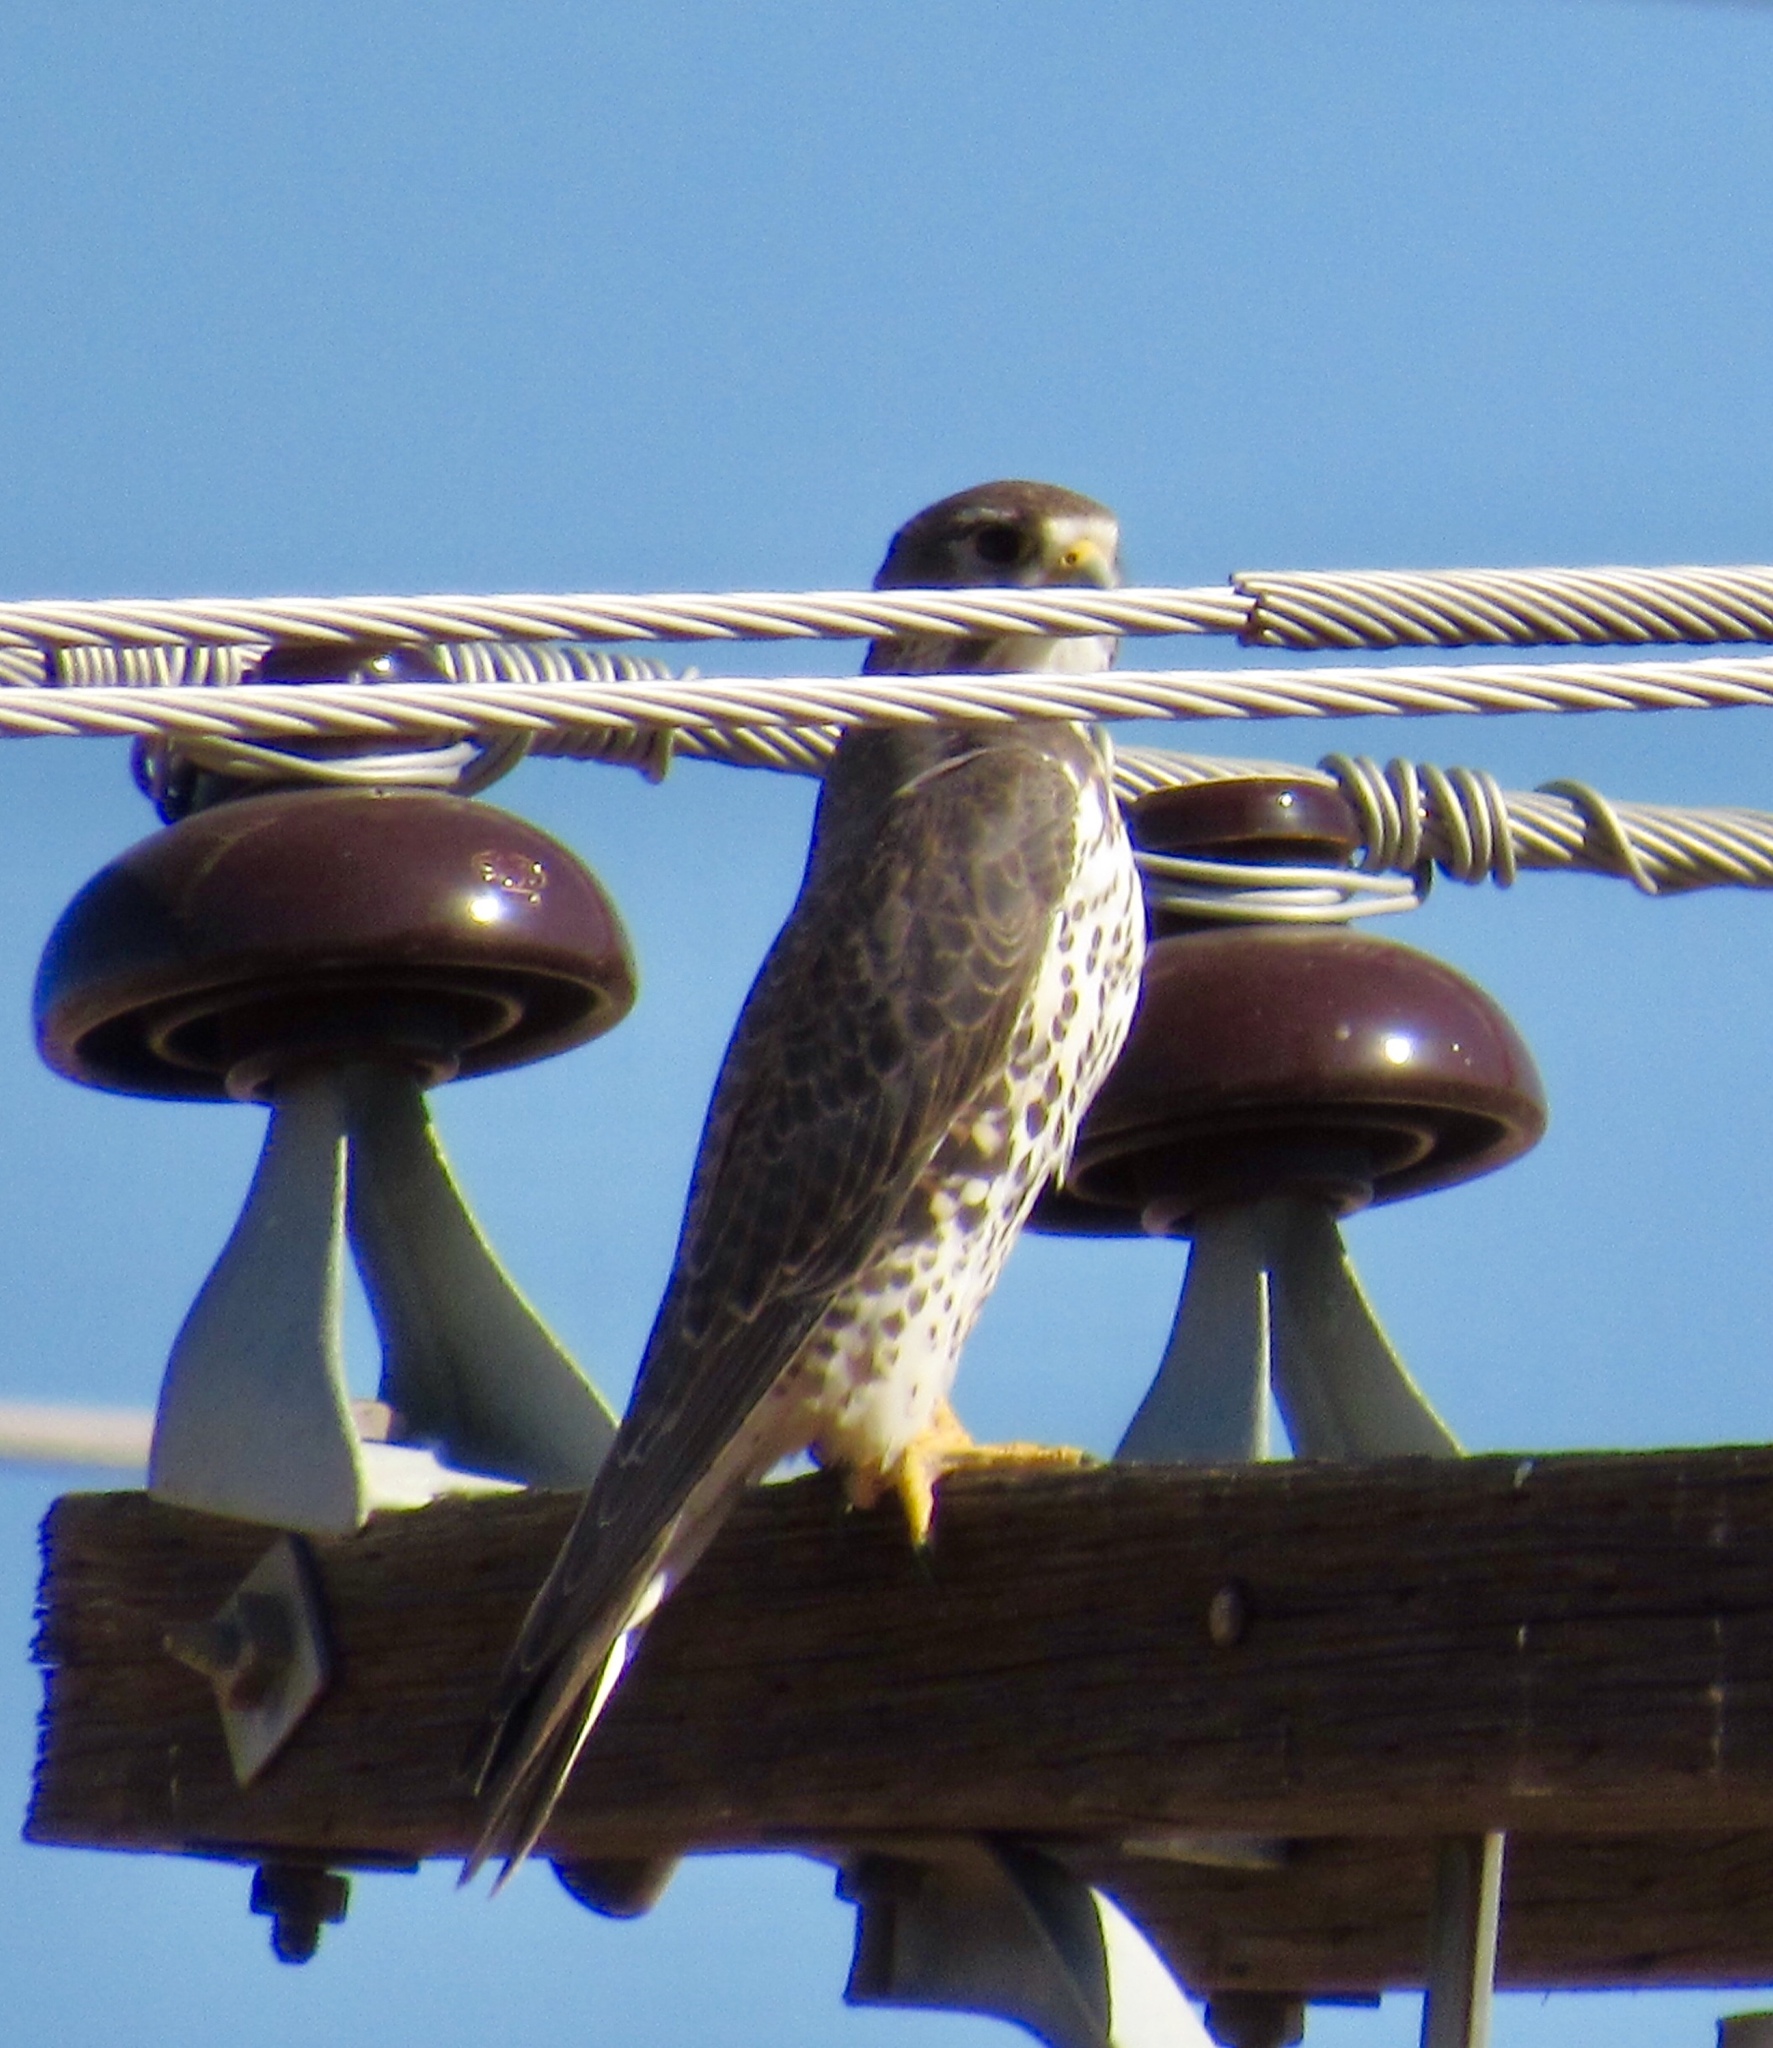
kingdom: Animalia
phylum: Chordata
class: Aves
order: Falconiformes
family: Falconidae
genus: Falco
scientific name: Falco mexicanus
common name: Prairie falcon
